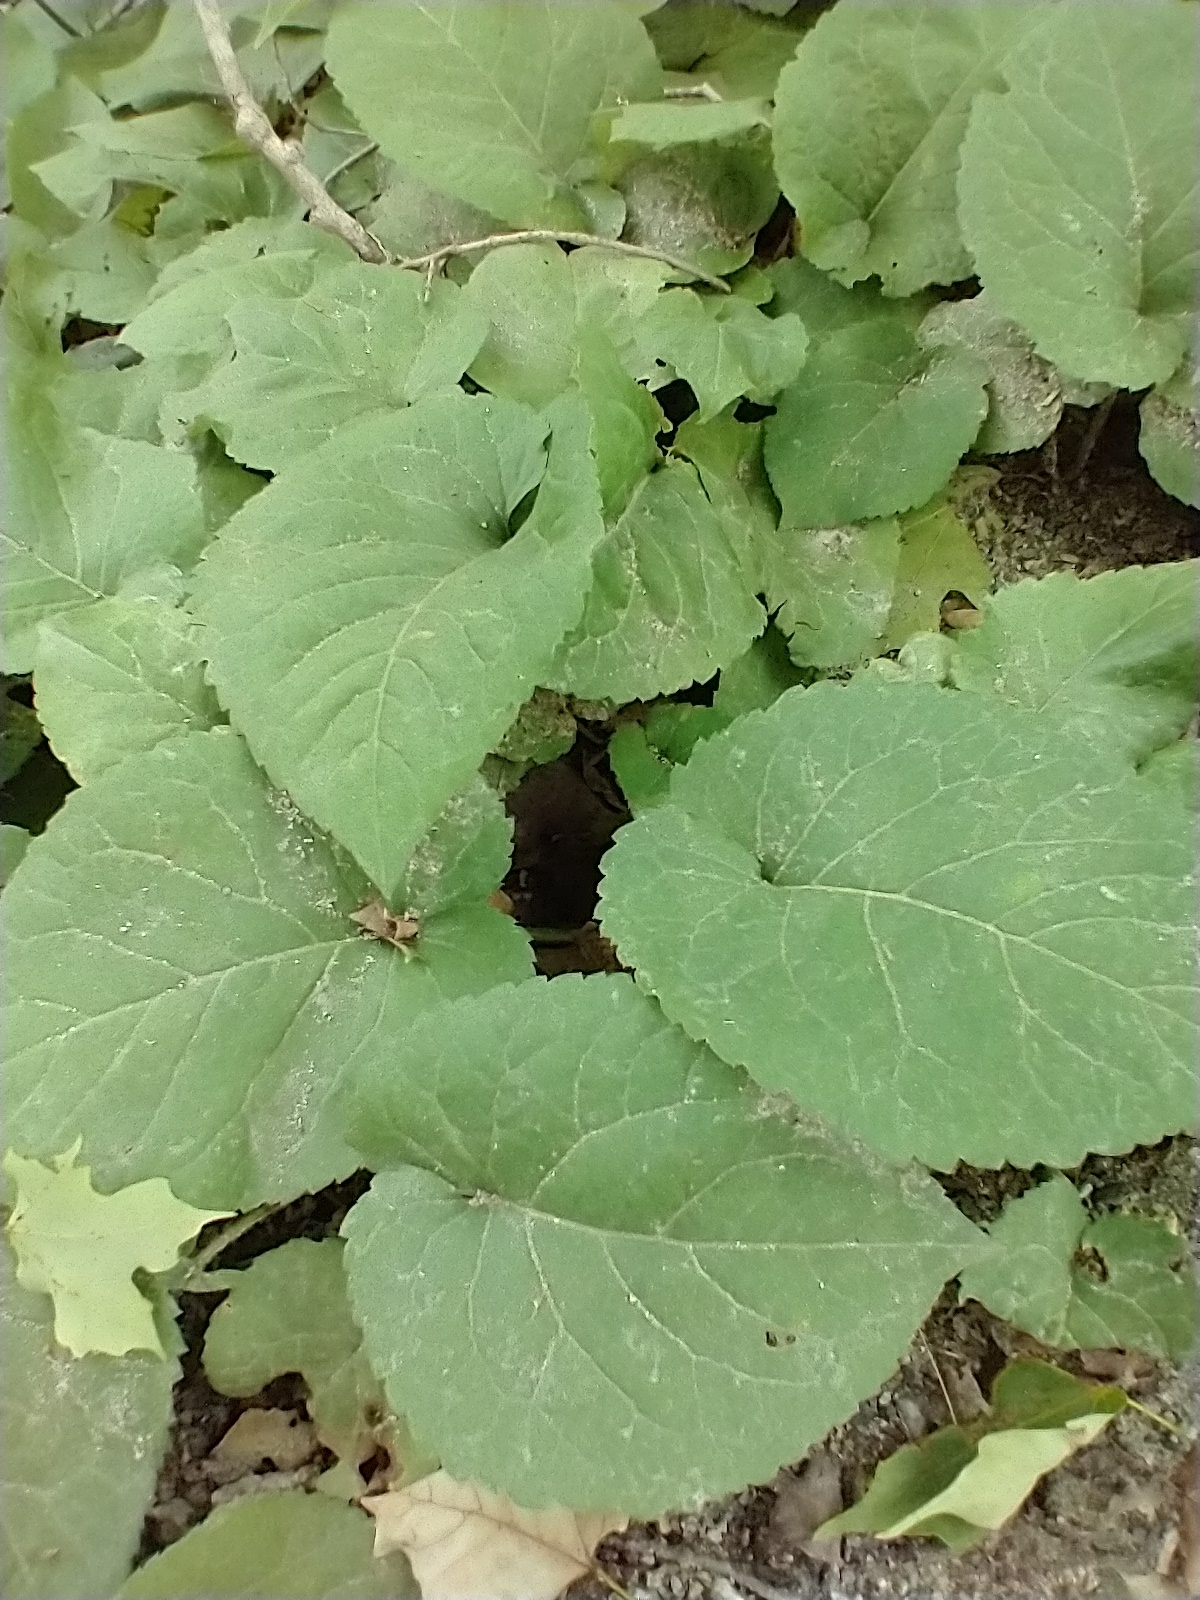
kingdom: Plantae
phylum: Tracheophyta
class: Magnoliopsida
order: Asterales
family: Asteraceae
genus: Eurybia
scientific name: Eurybia macrophylla
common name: Big-leaved aster
